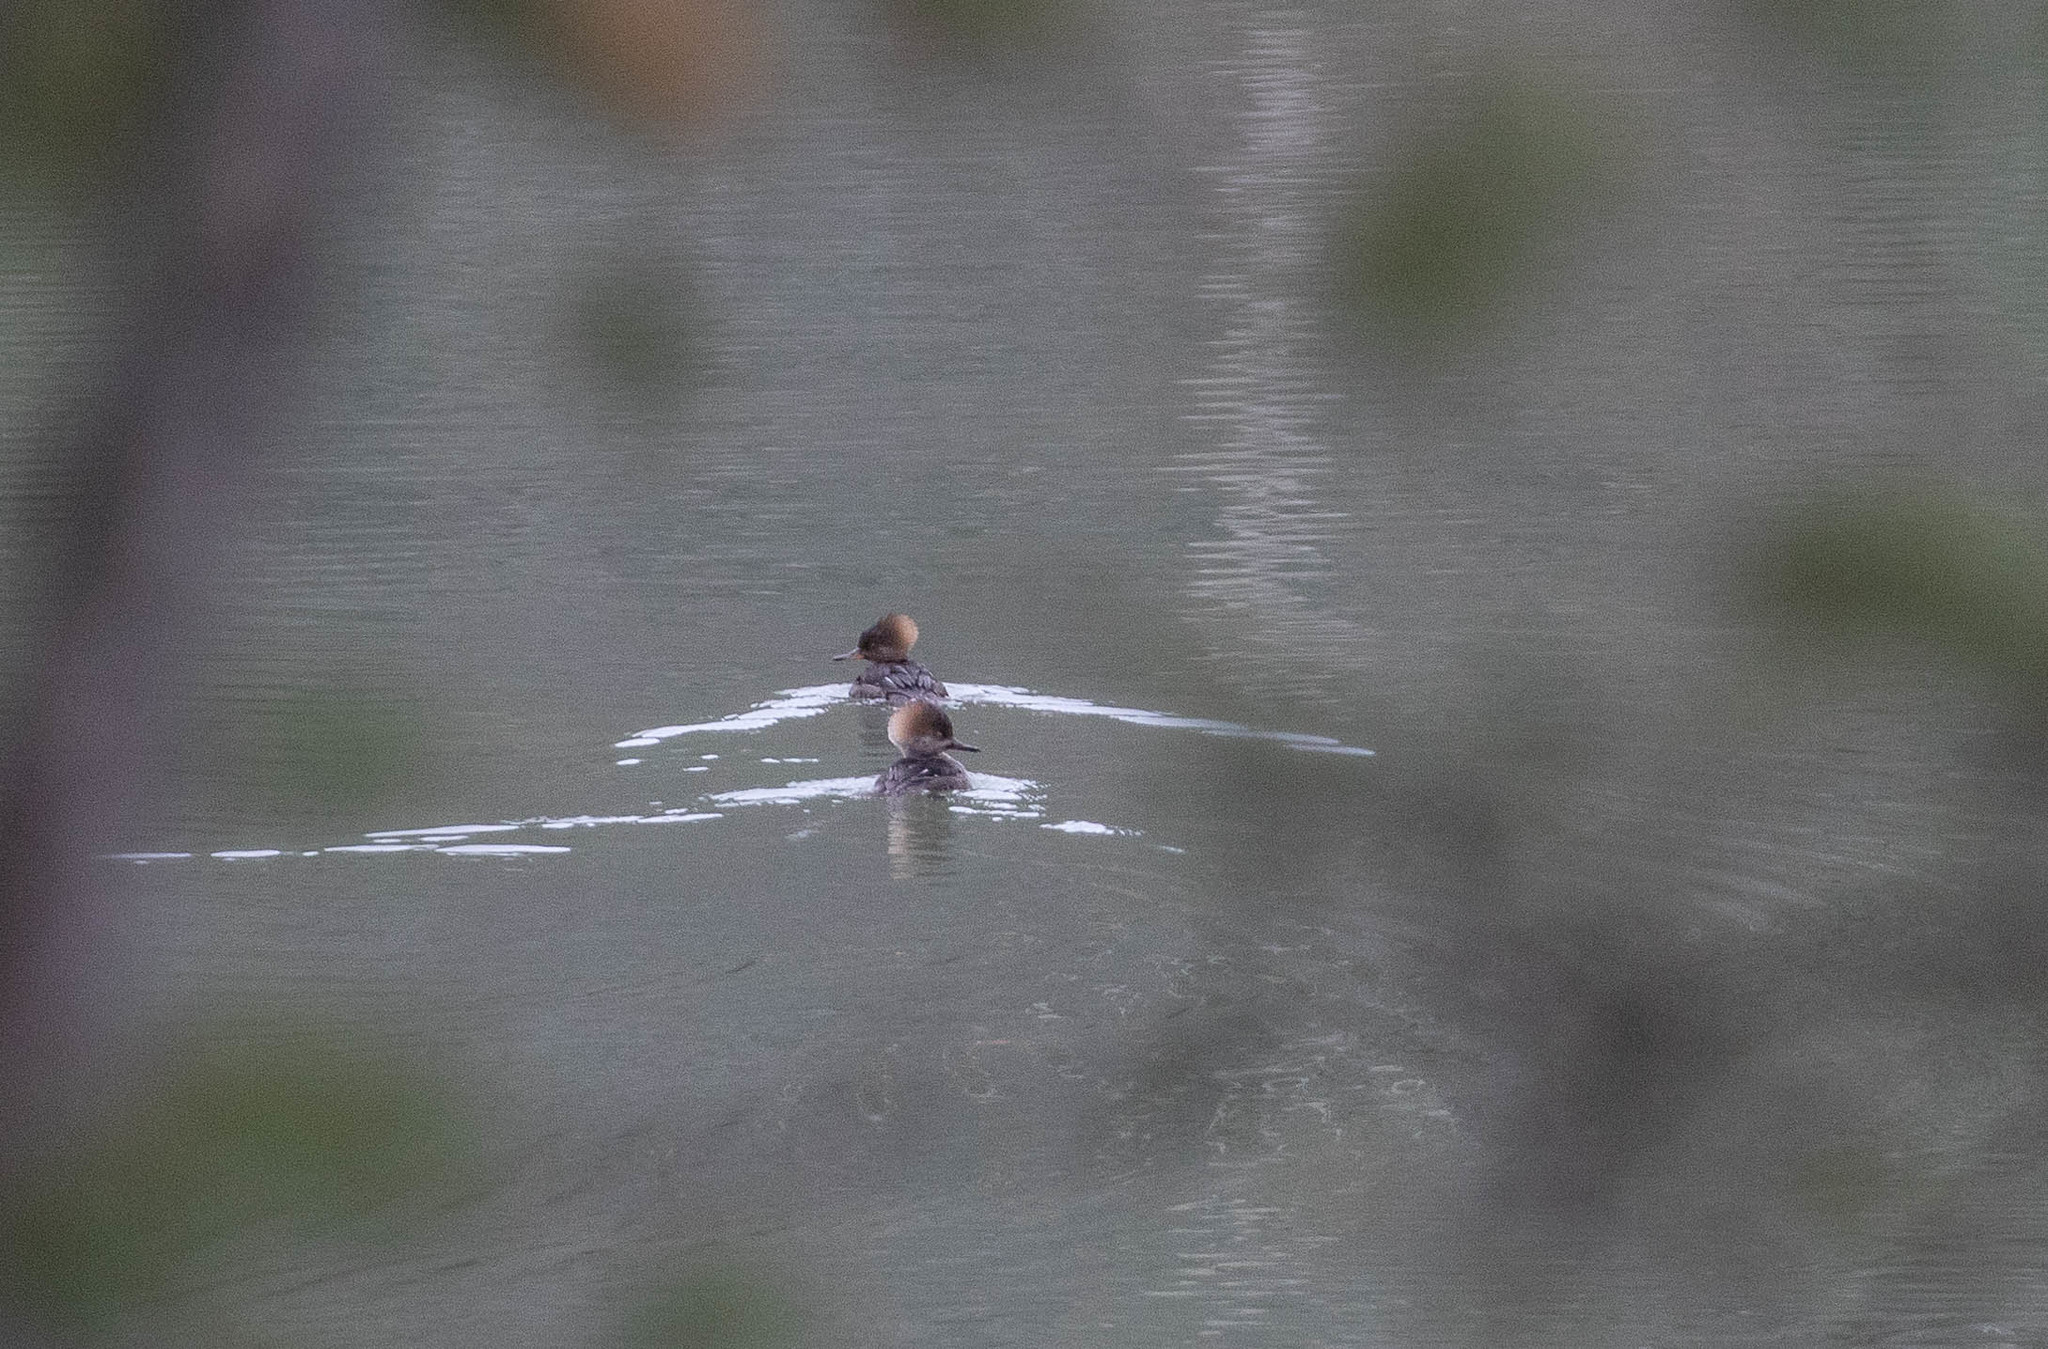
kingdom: Animalia
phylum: Chordata
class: Aves
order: Anseriformes
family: Anatidae
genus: Lophodytes
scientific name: Lophodytes cucullatus
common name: Hooded merganser
